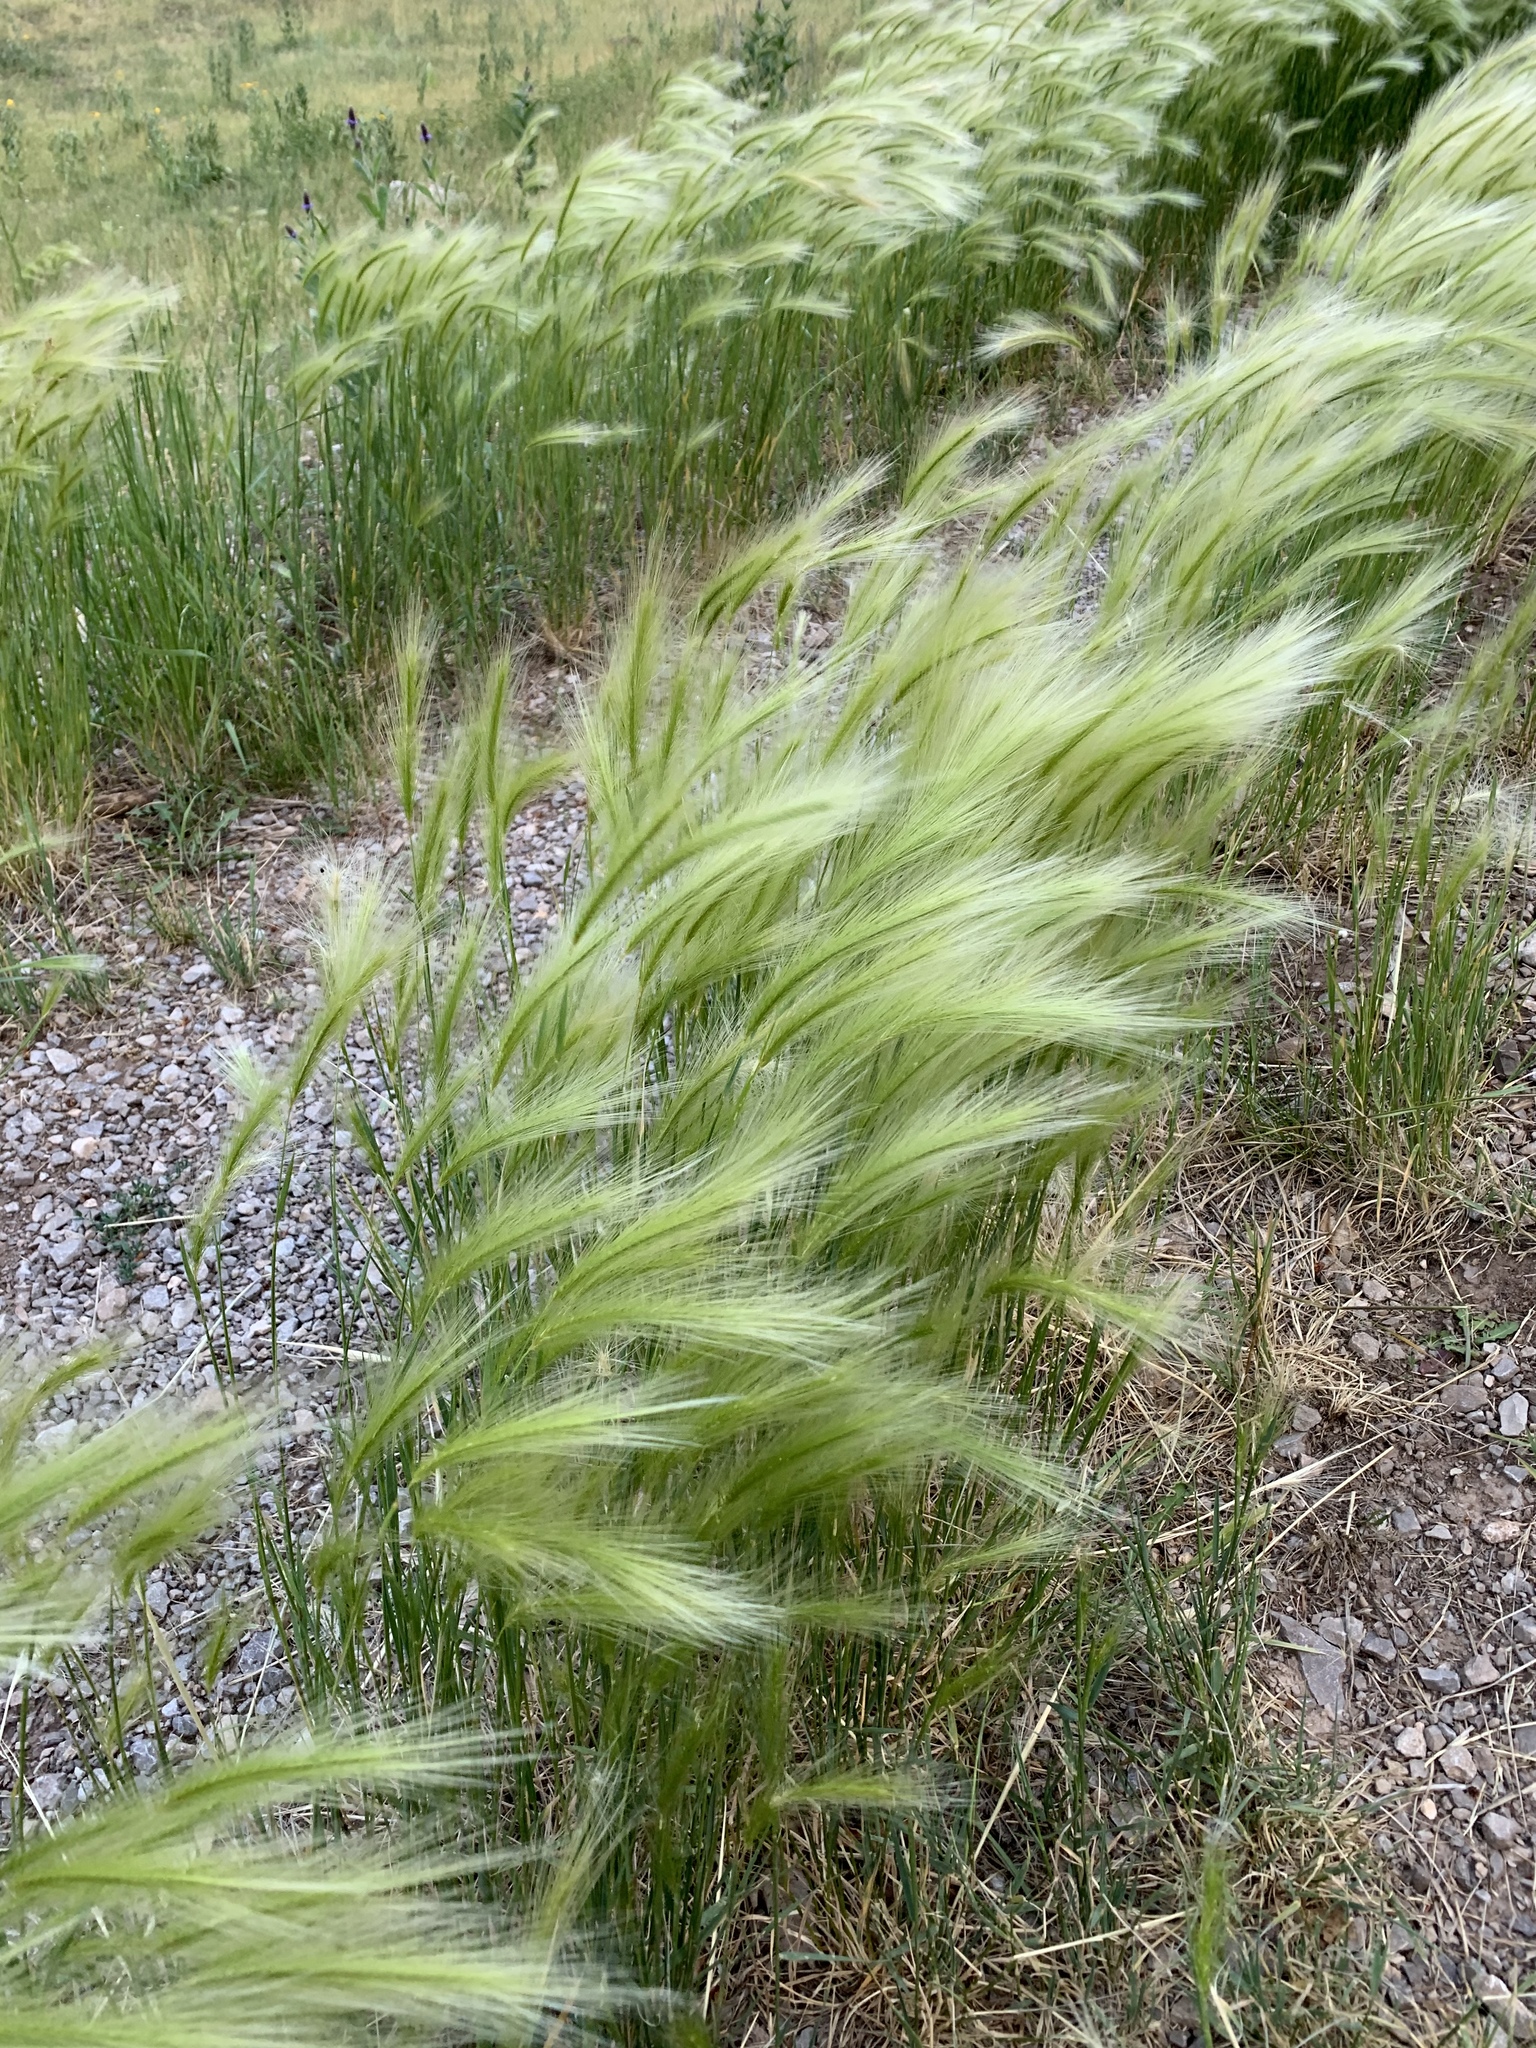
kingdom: Plantae
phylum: Tracheophyta
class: Liliopsida
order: Poales
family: Poaceae
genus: Hordeum
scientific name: Hordeum jubatum
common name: Foxtail barley
